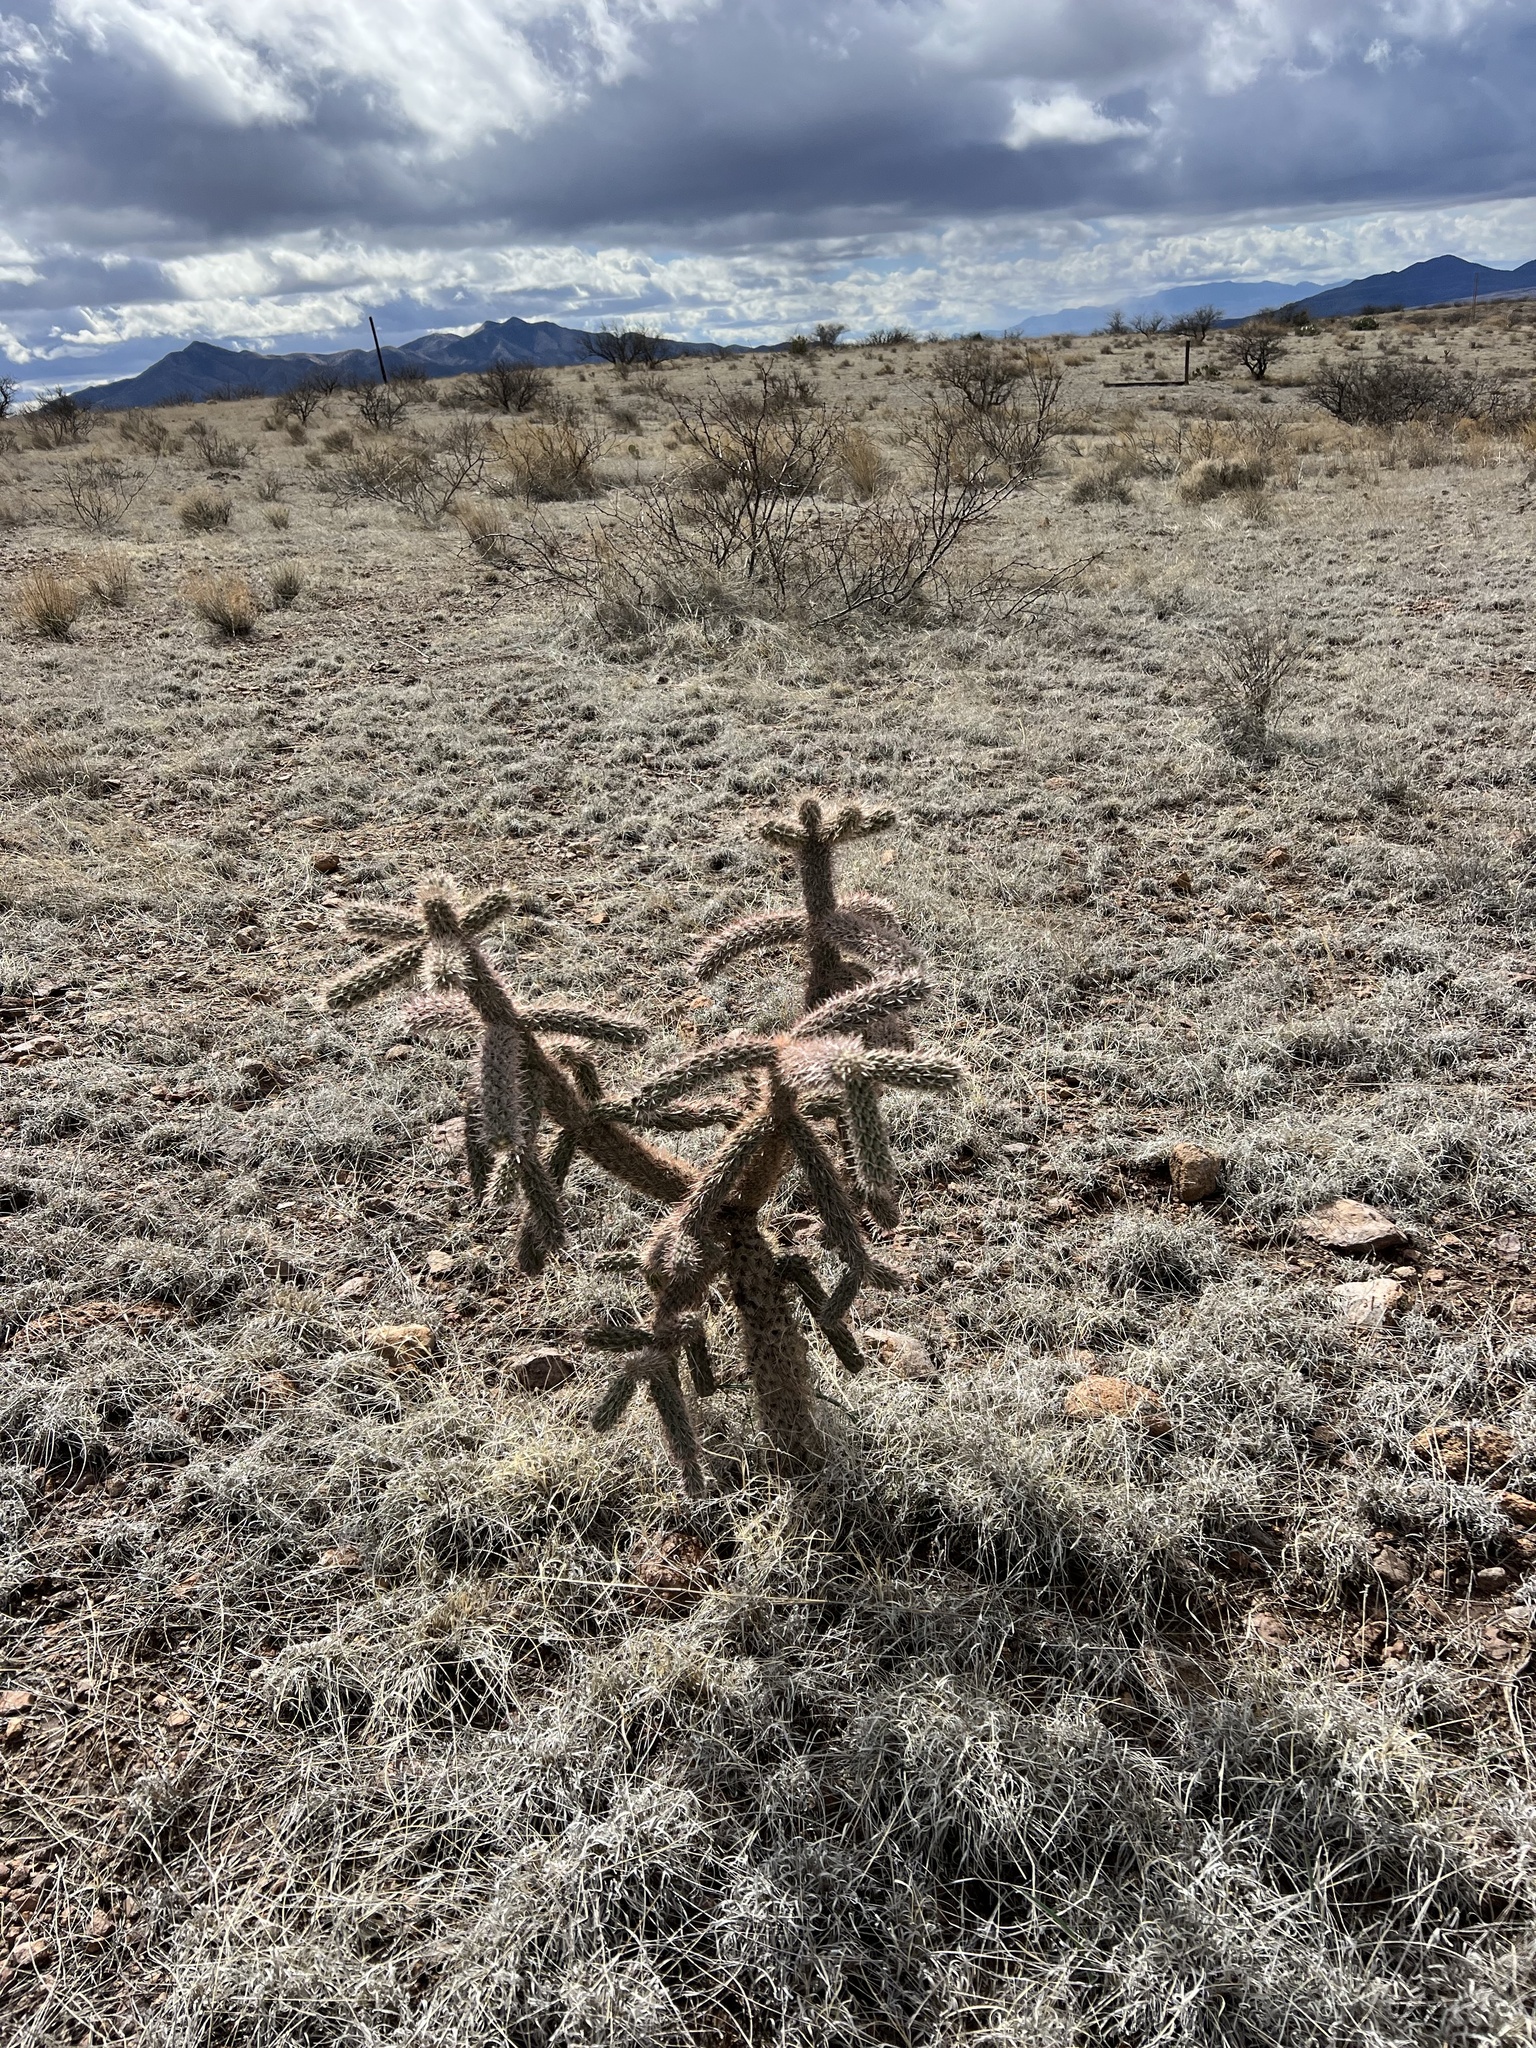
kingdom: Plantae
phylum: Tracheophyta
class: Magnoliopsida
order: Caryophyllales
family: Cactaceae
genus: Cylindropuntia
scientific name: Cylindropuntia imbricata
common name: Candelabrum cactus
